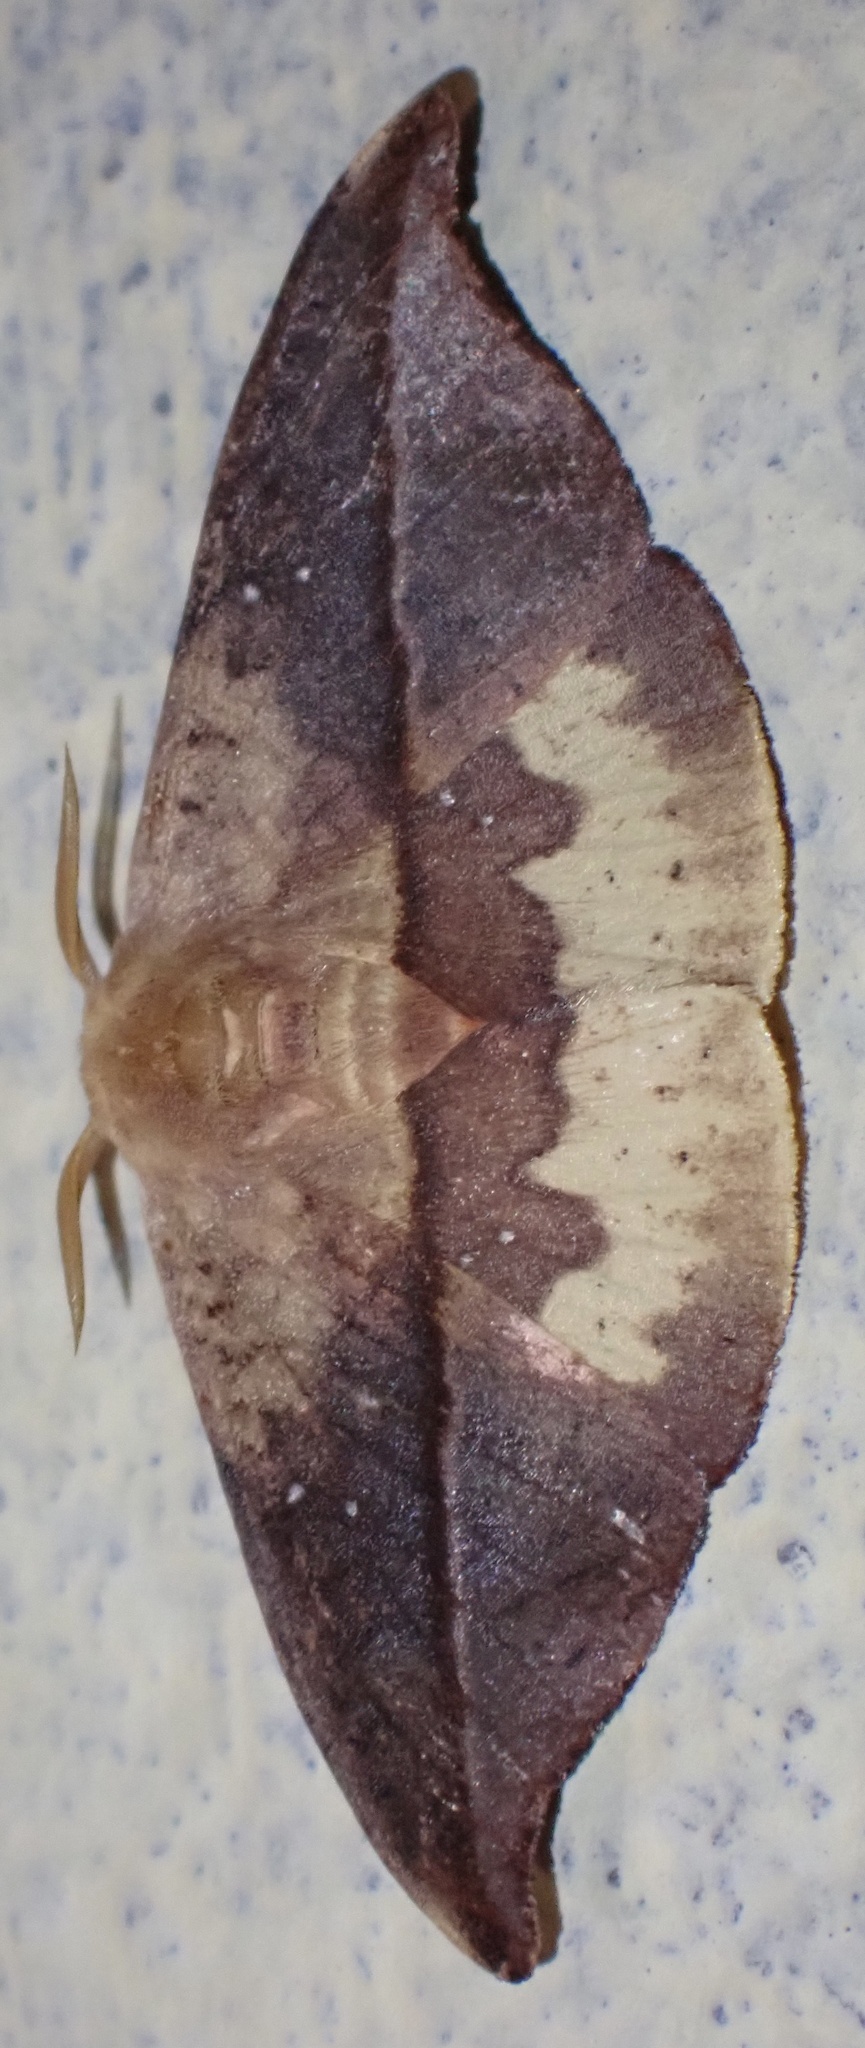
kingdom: Animalia
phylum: Arthropoda
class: Insecta
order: Lepidoptera
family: Drepanidae
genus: Oreta
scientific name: Oreta subvinosa
